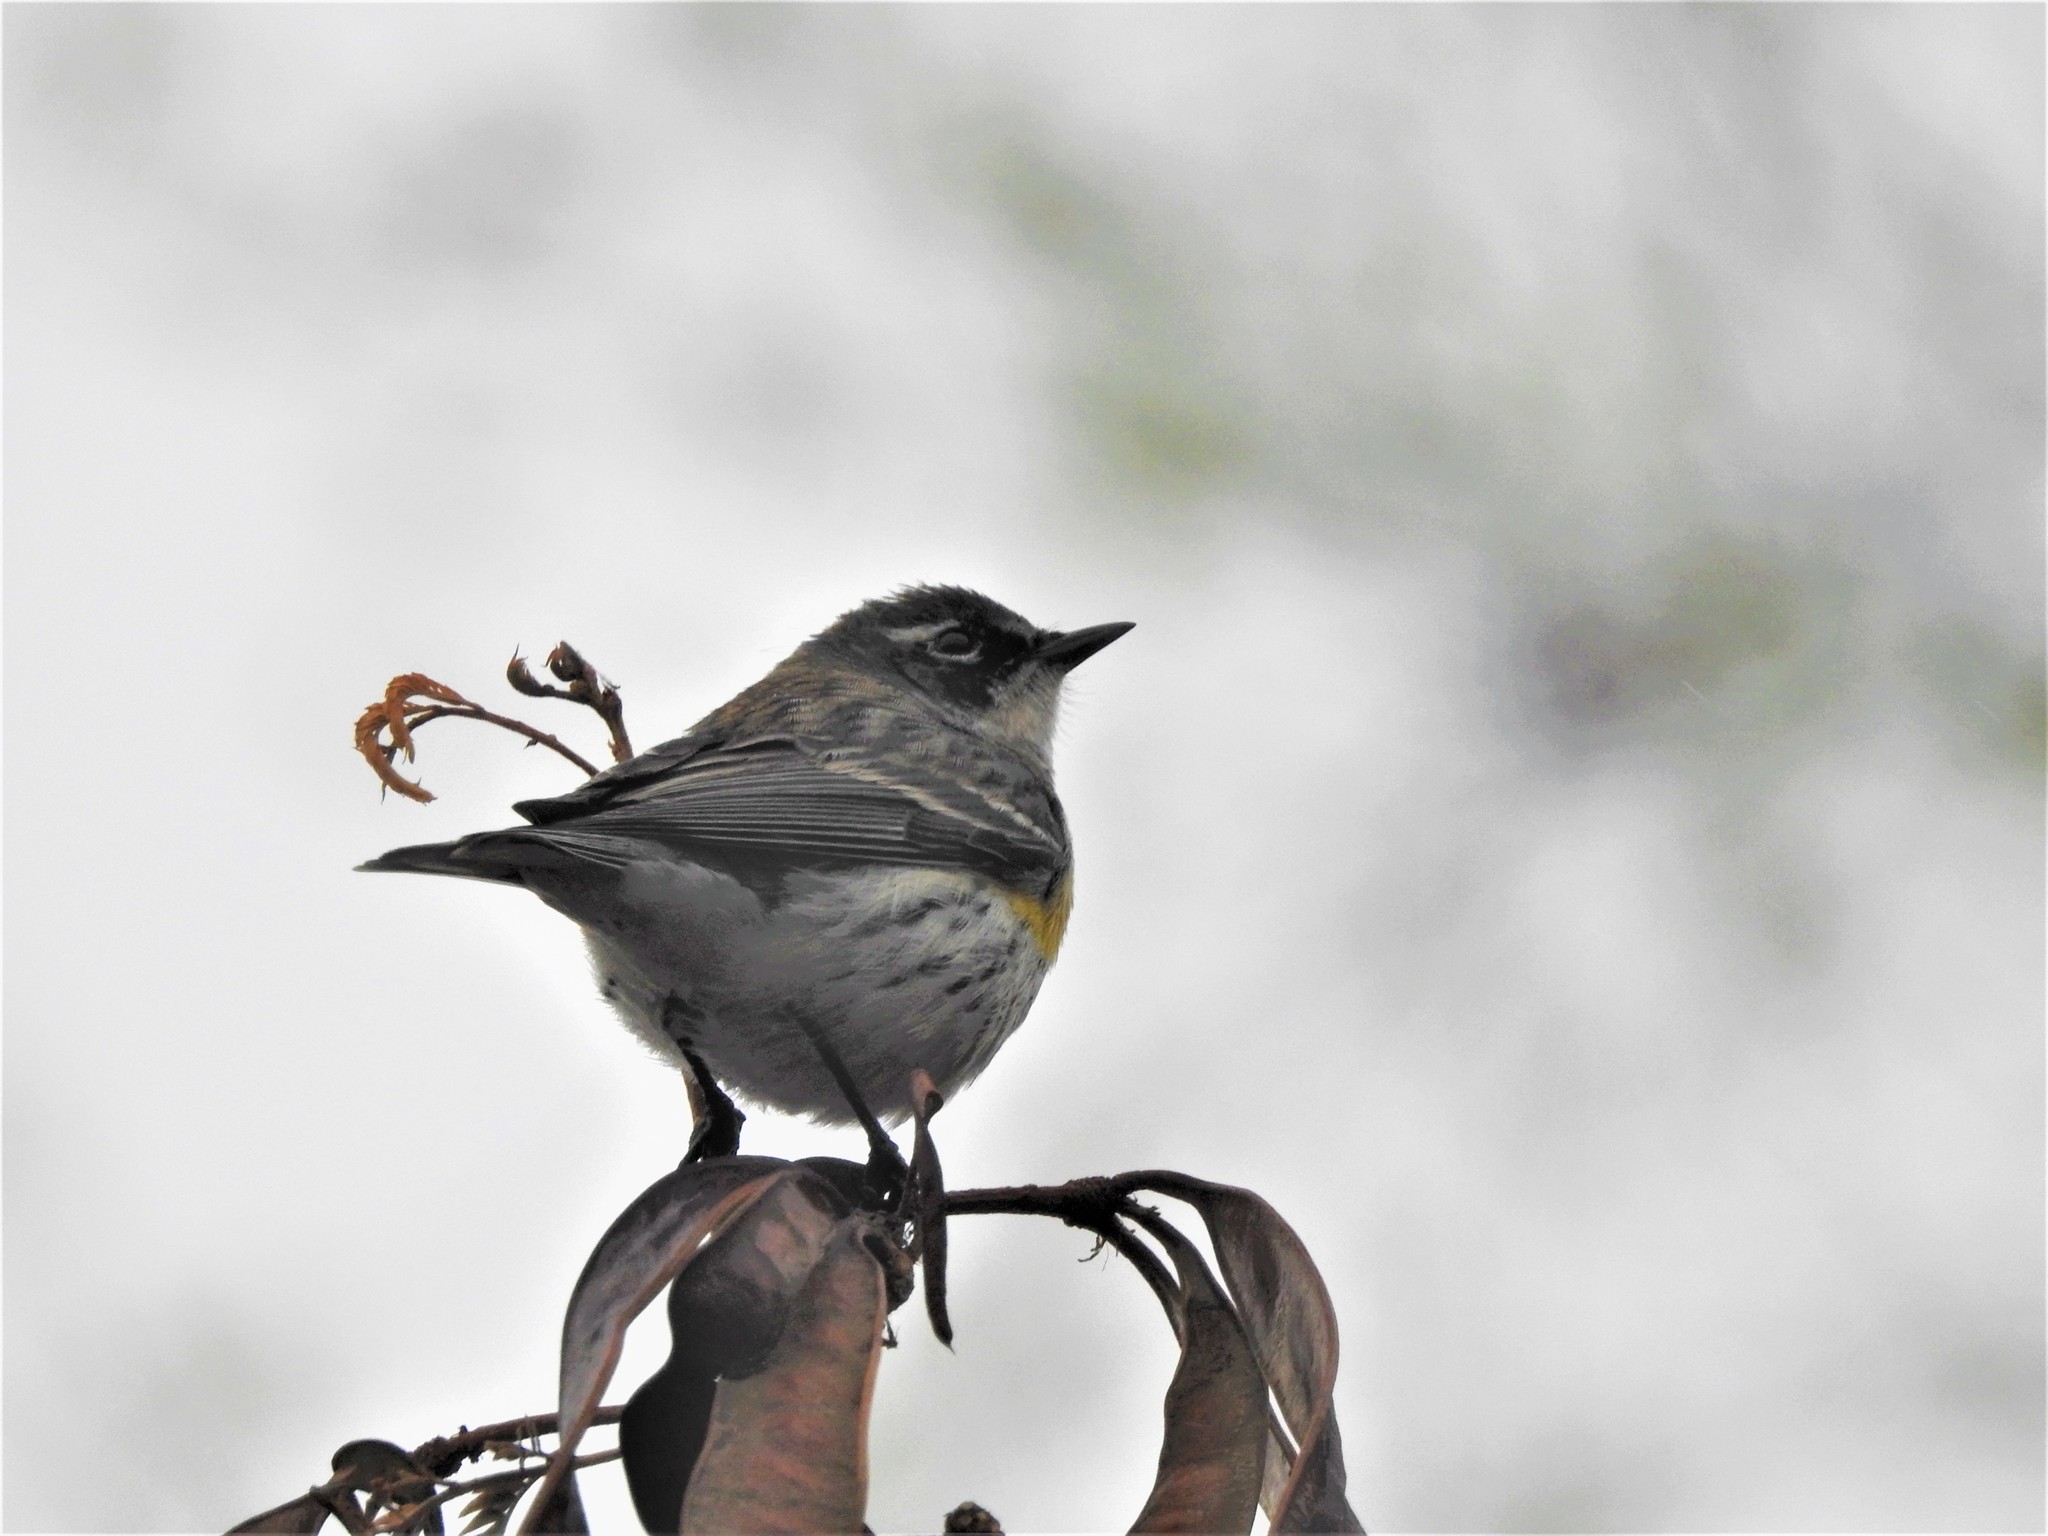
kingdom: Animalia
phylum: Chordata
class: Aves
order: Passeriformes
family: Parulidae
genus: Setophaga
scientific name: Setophaga coronata
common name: Myrtle warbler
